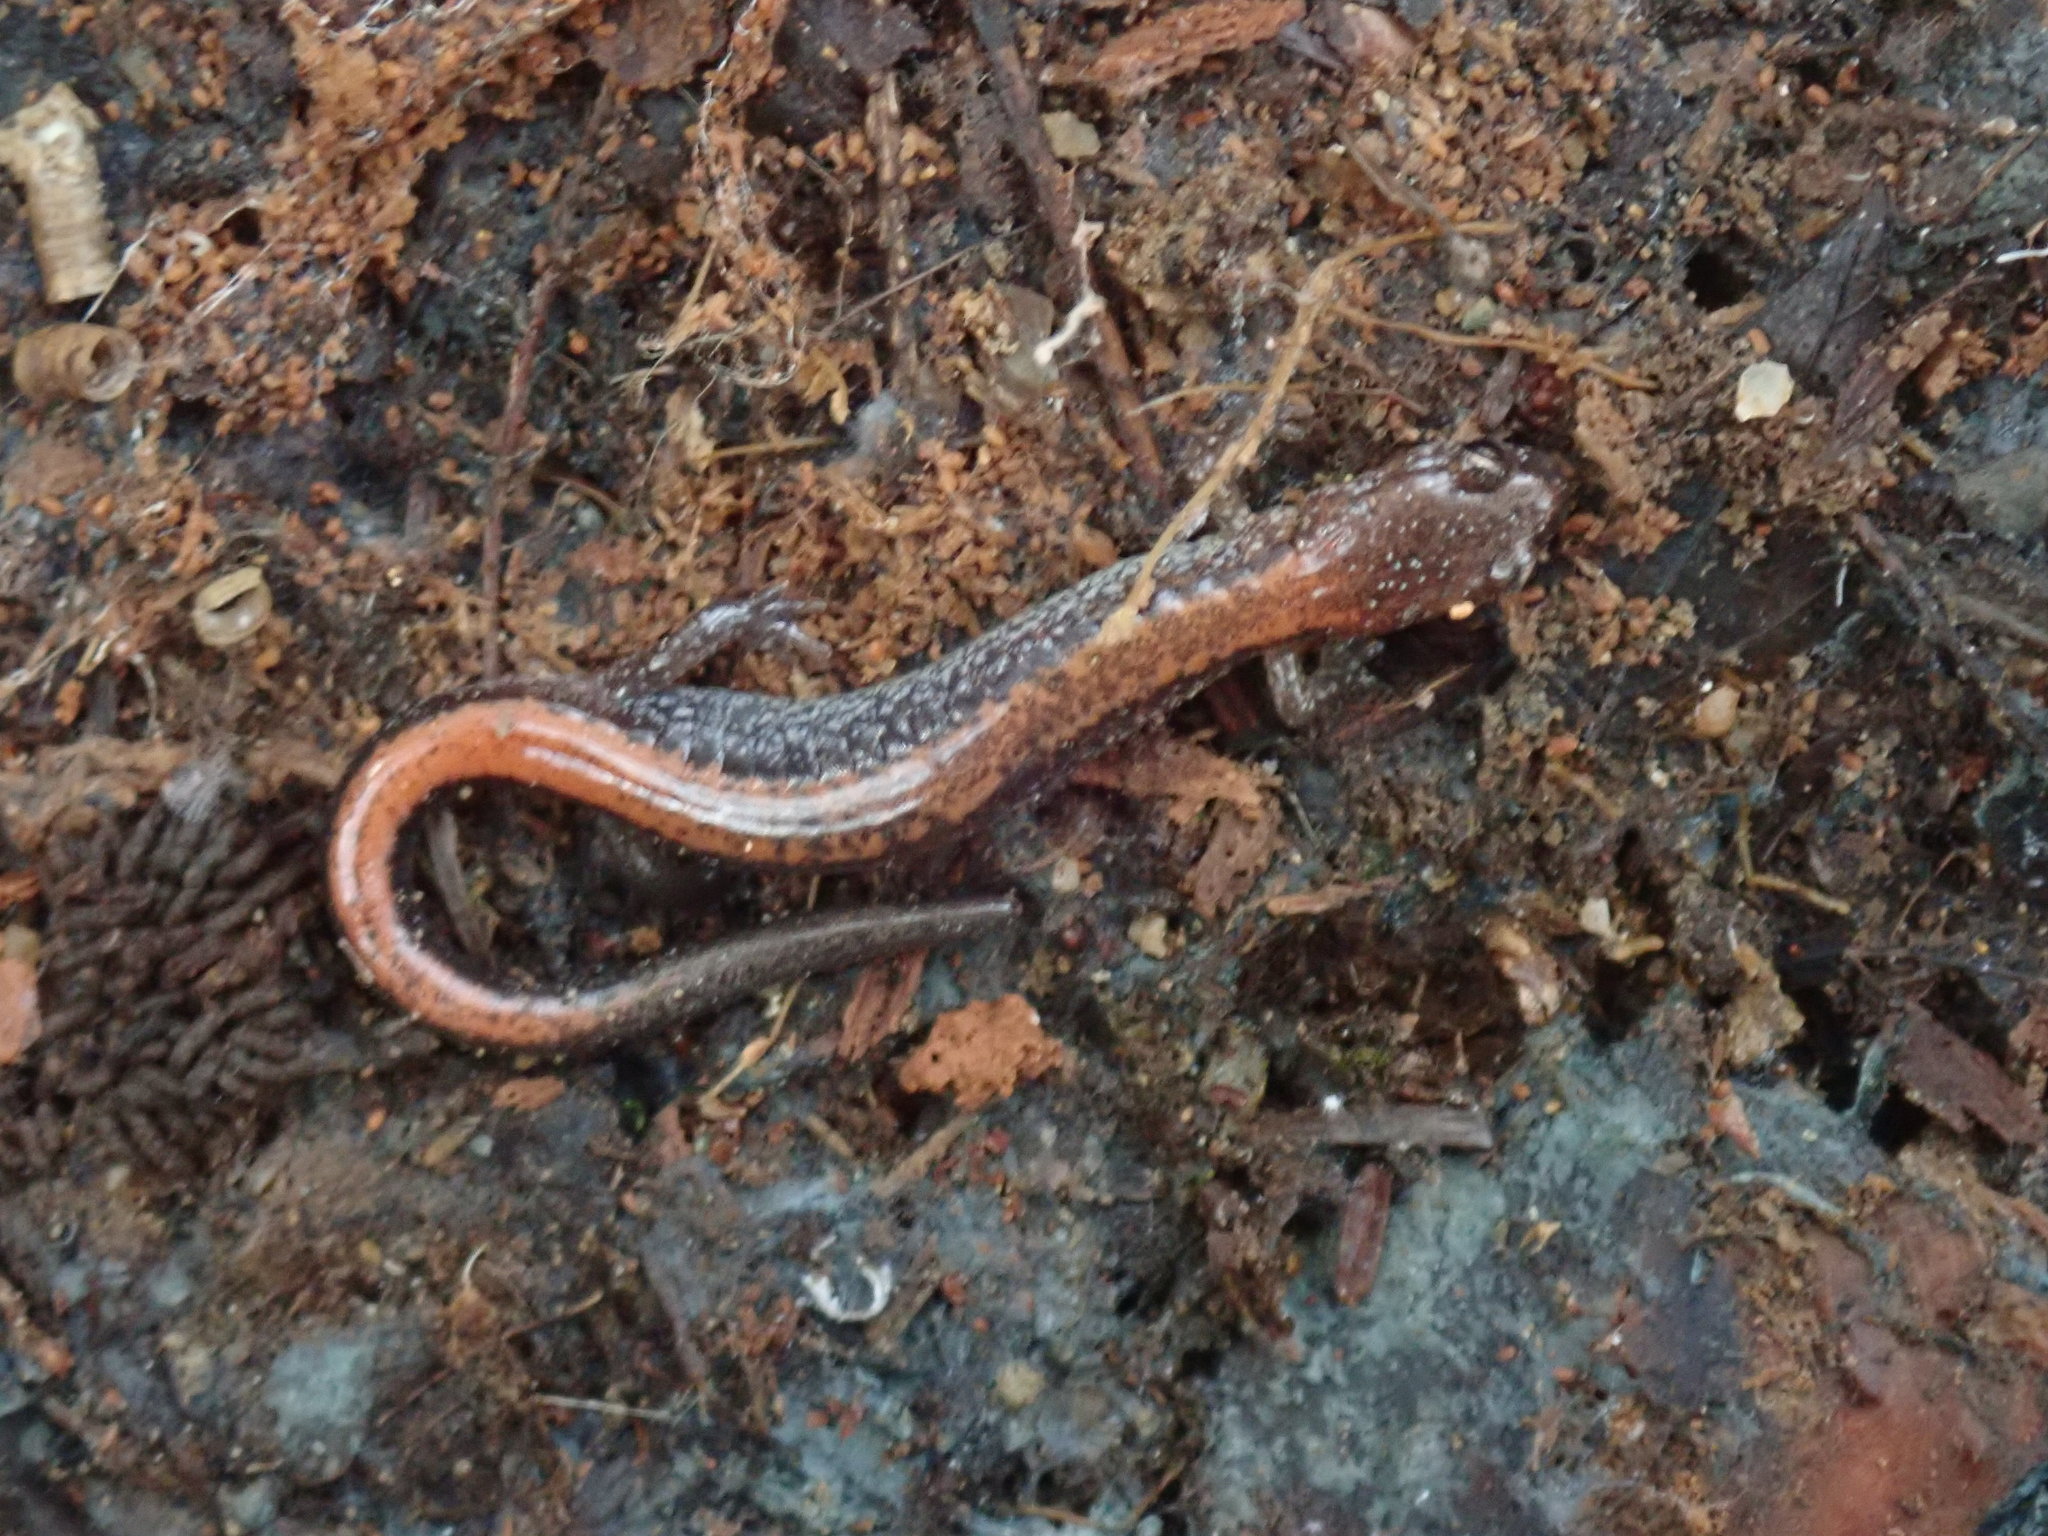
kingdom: Animalia
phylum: Chordata
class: Amphibia
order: Caudata
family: Plethodontidae
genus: Plethodon
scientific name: Plethodon cinereus
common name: Redback salamander
